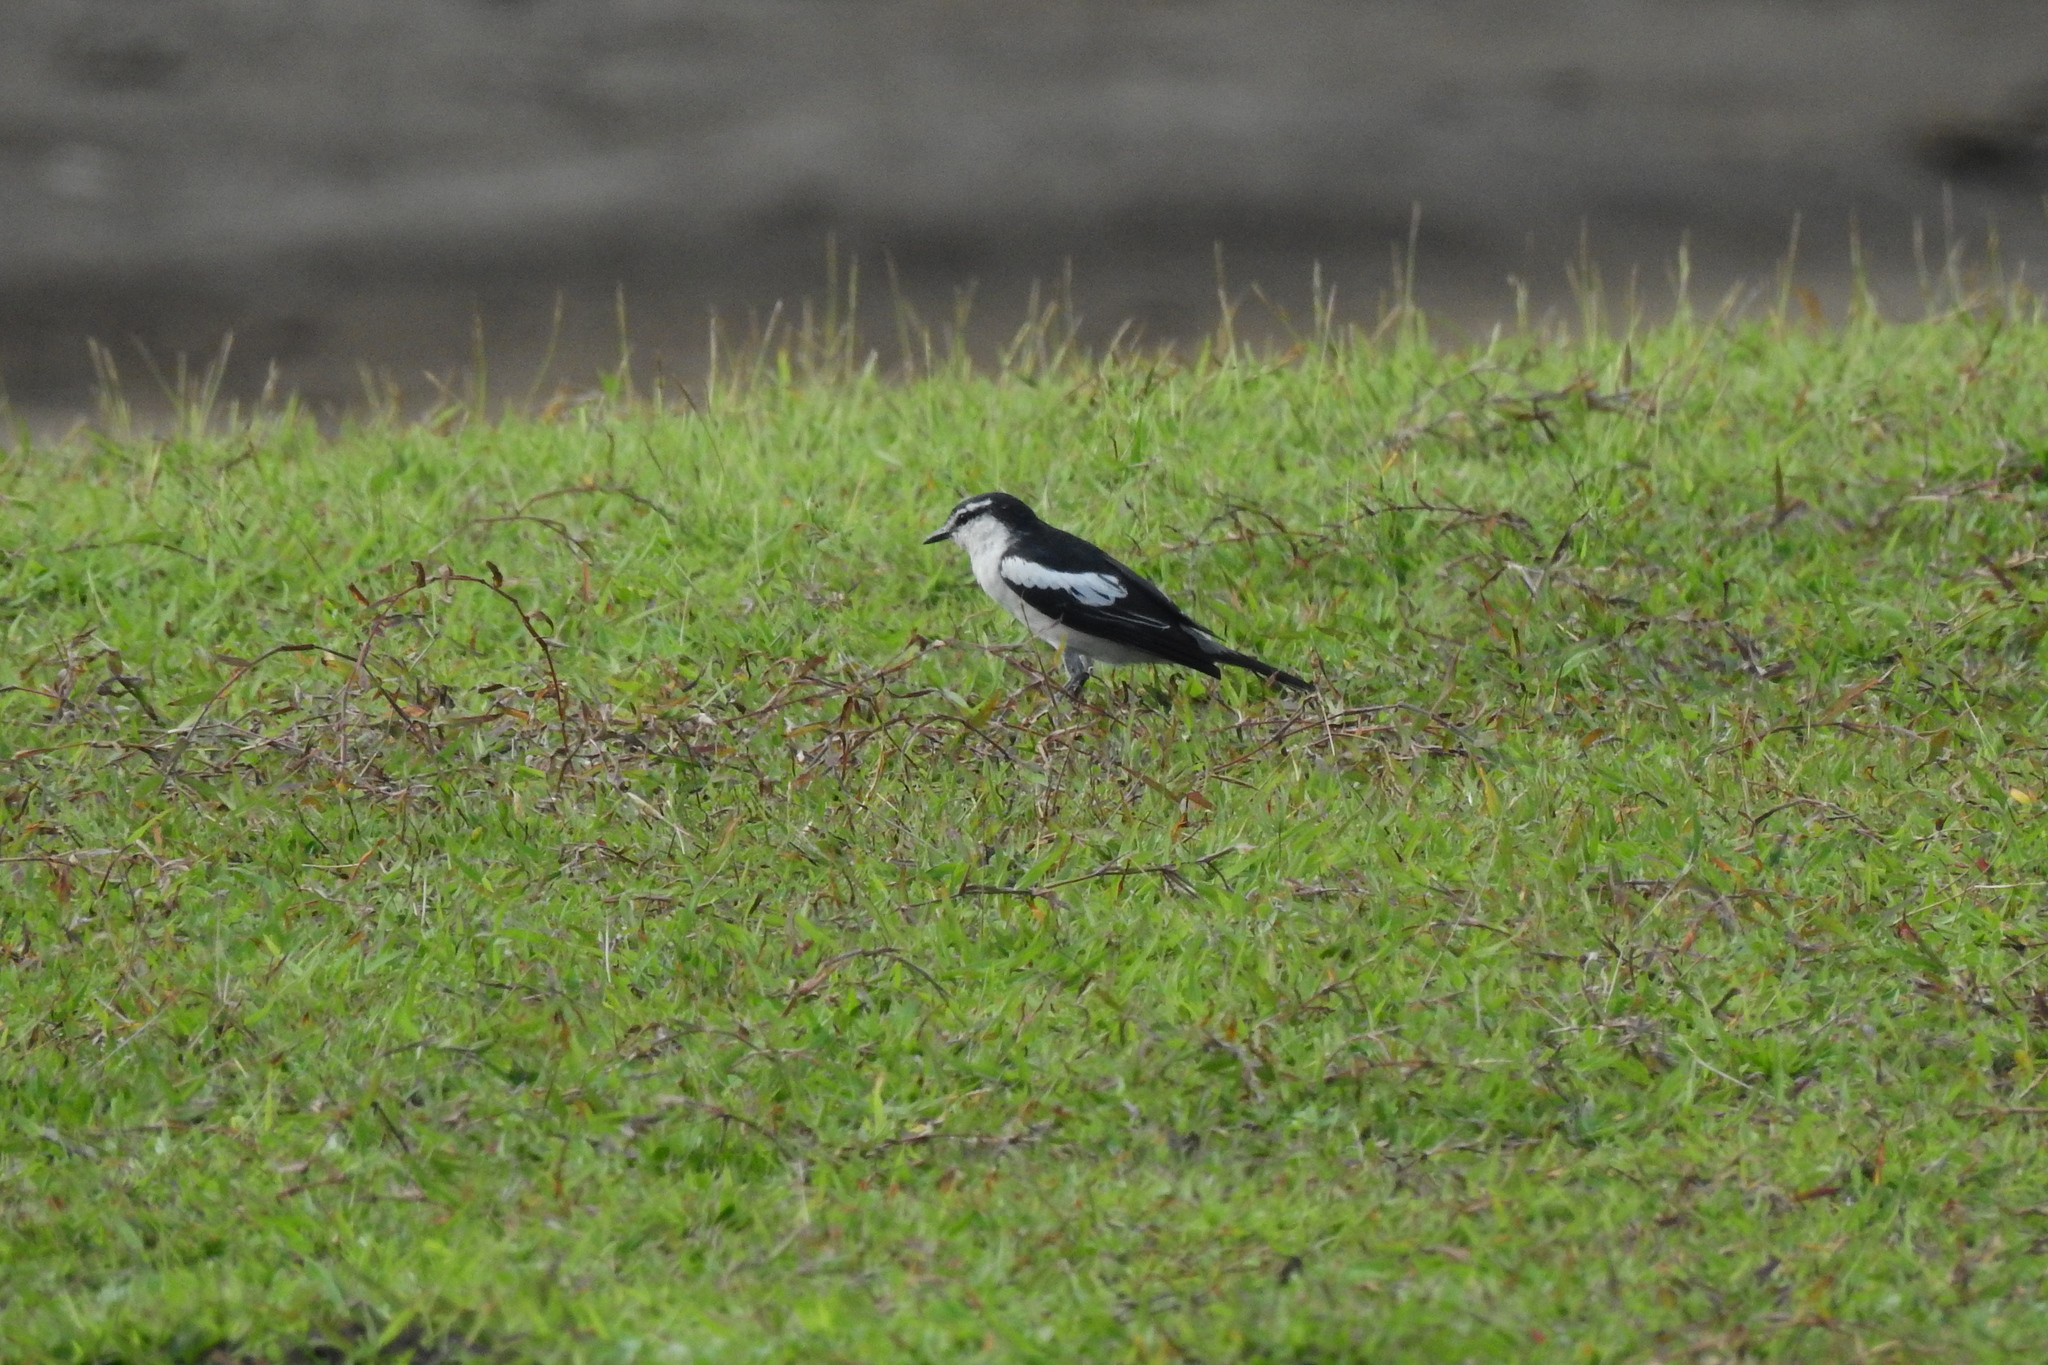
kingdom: Animalia
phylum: Chordata
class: Aves
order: Passeriformes
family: Campephagidae
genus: Lalage
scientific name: Lalage sueurii
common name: White-shouldered triller
